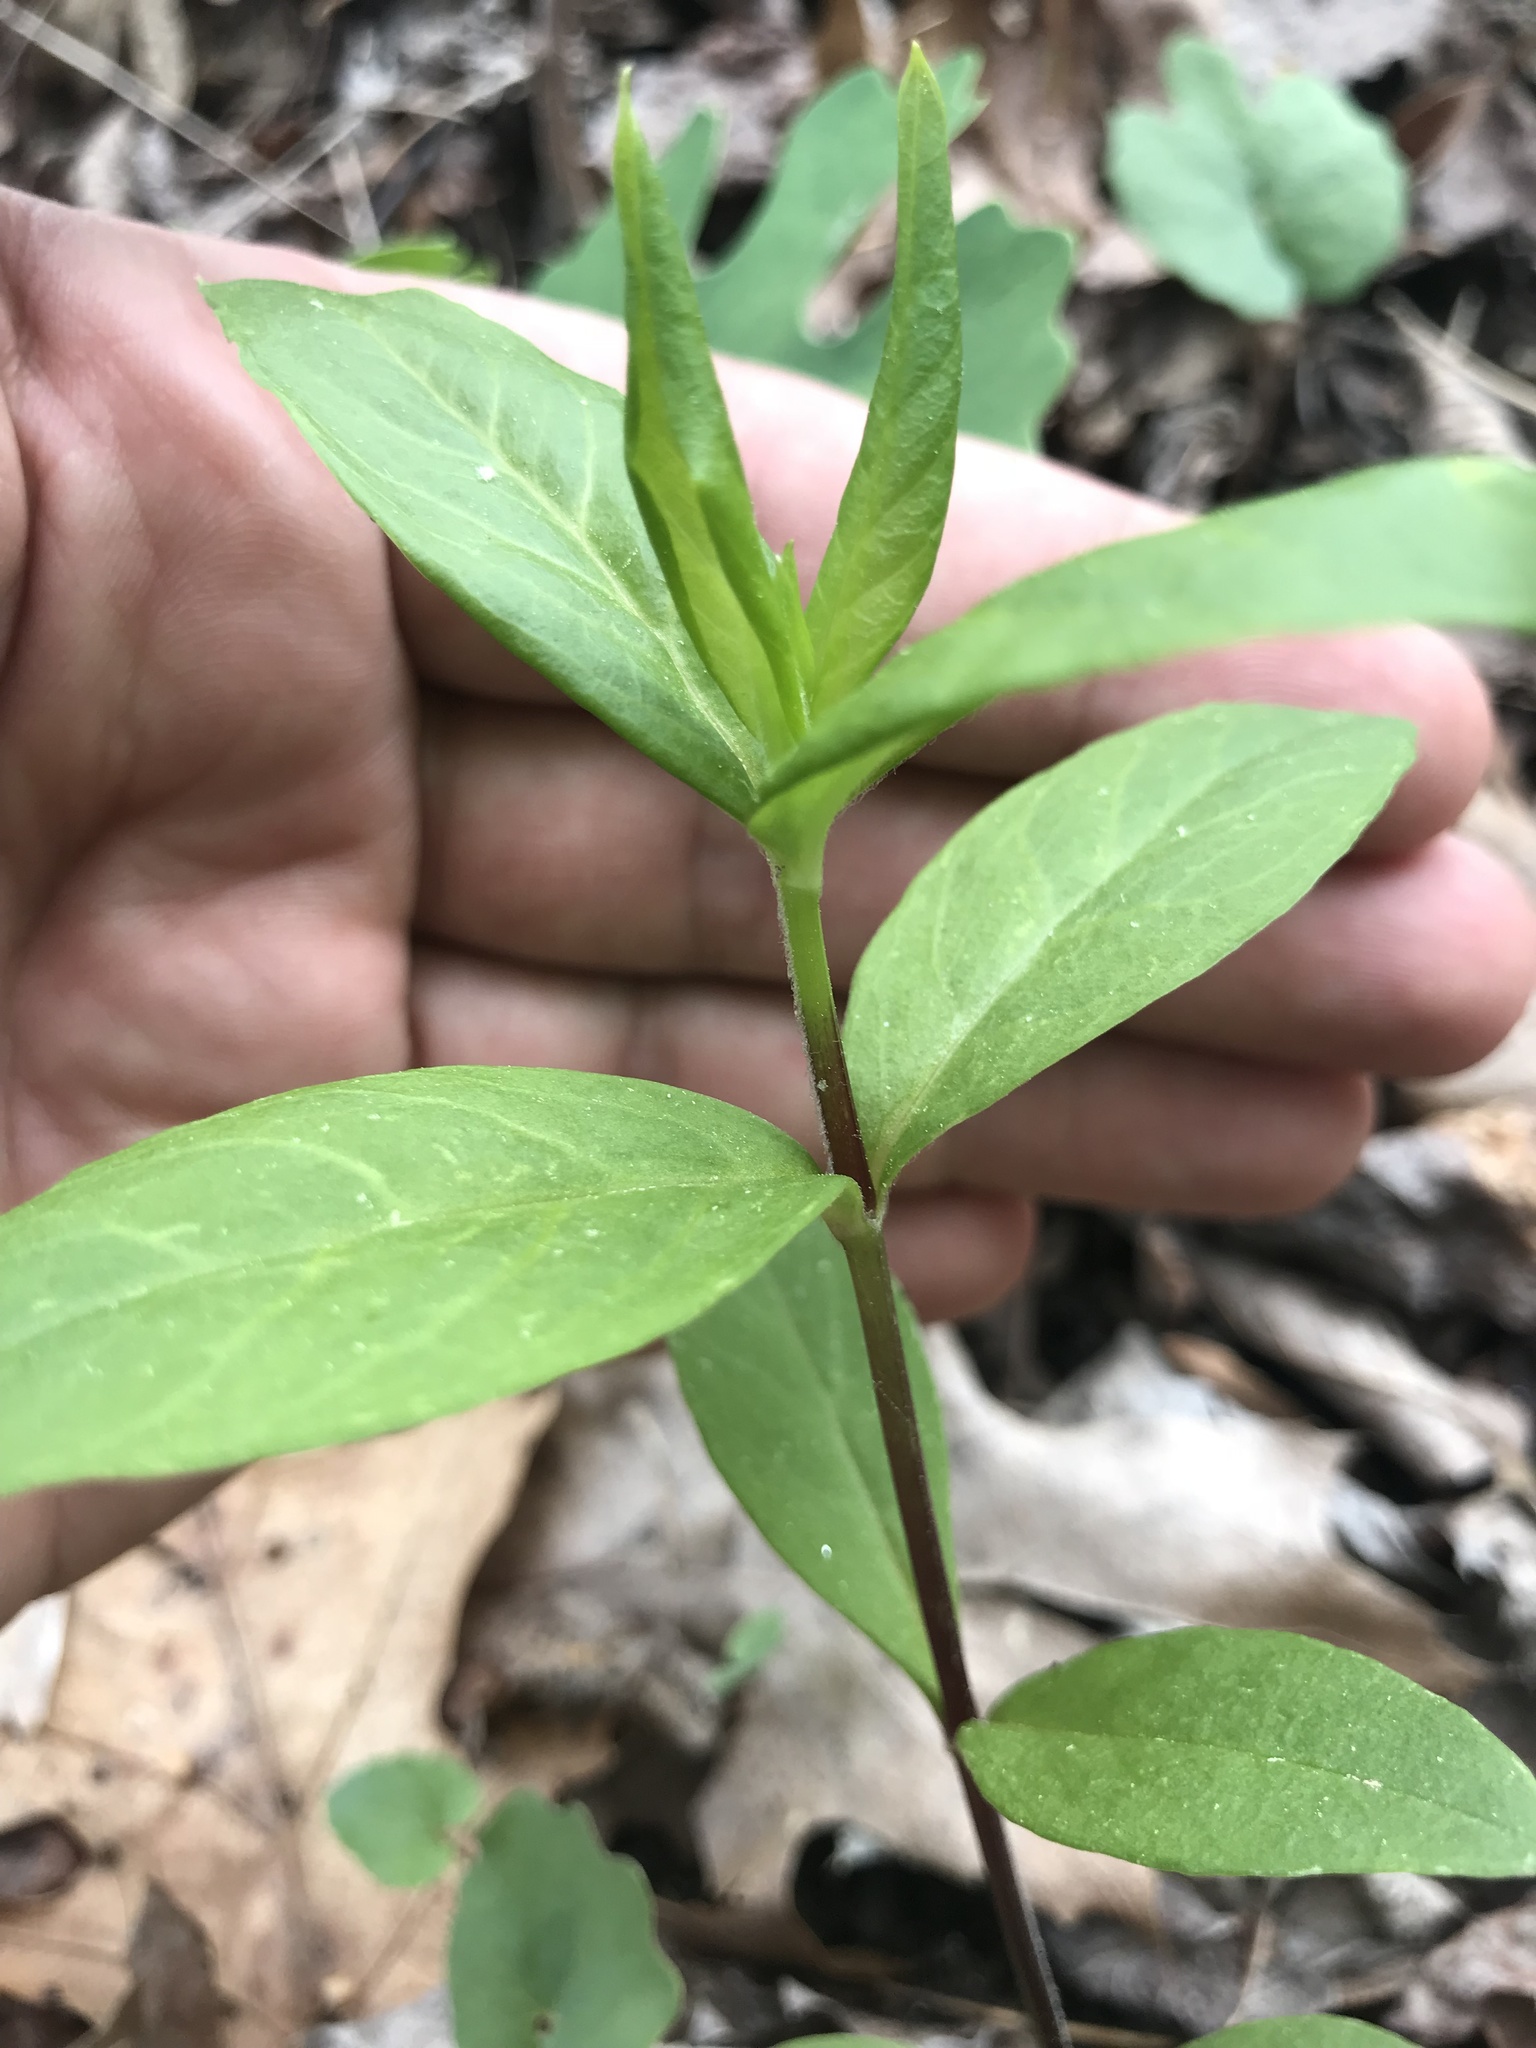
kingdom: Plantae
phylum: Tracheophyta
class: Magnoliopsida
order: Caryophyllales
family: Caryophyllaceae
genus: Stellaria
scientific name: Stellaria pubera
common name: Star chickweed
